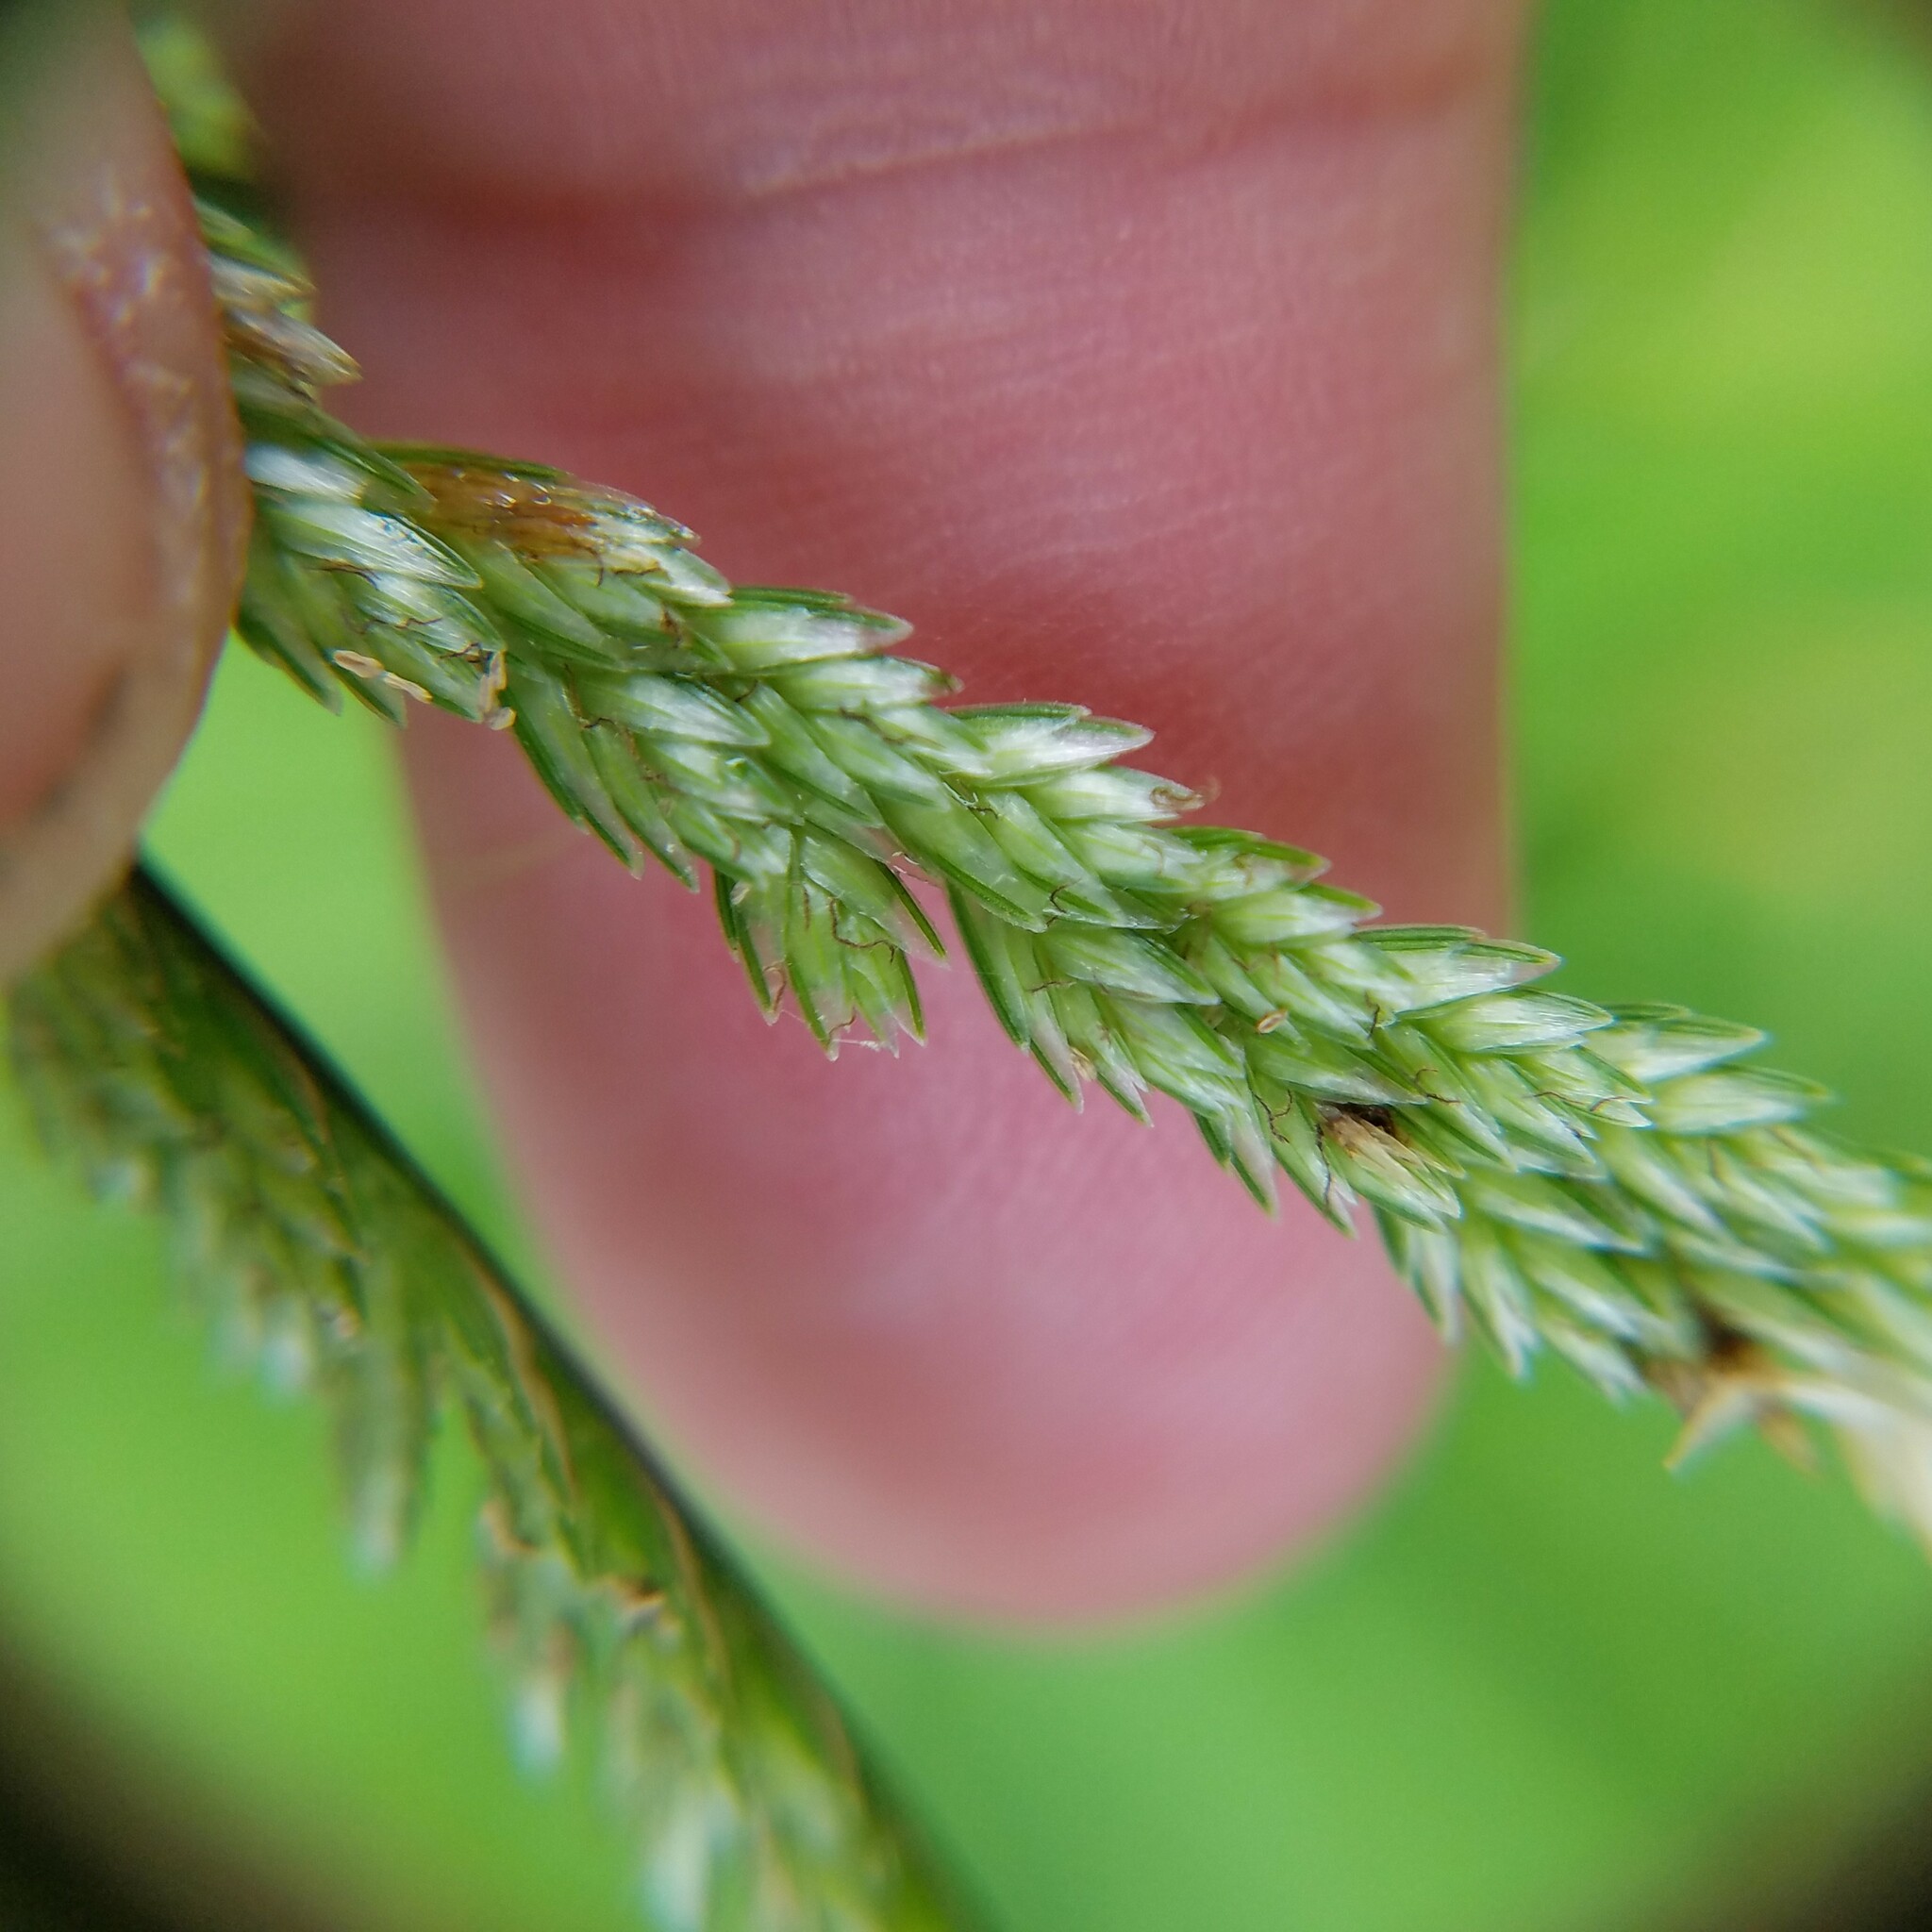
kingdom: Plantae
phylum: Tracheophyta
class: Liliopsida
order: Poales
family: Poaceae
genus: Eleusine
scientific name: Eleusine indica
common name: Yard-grass
